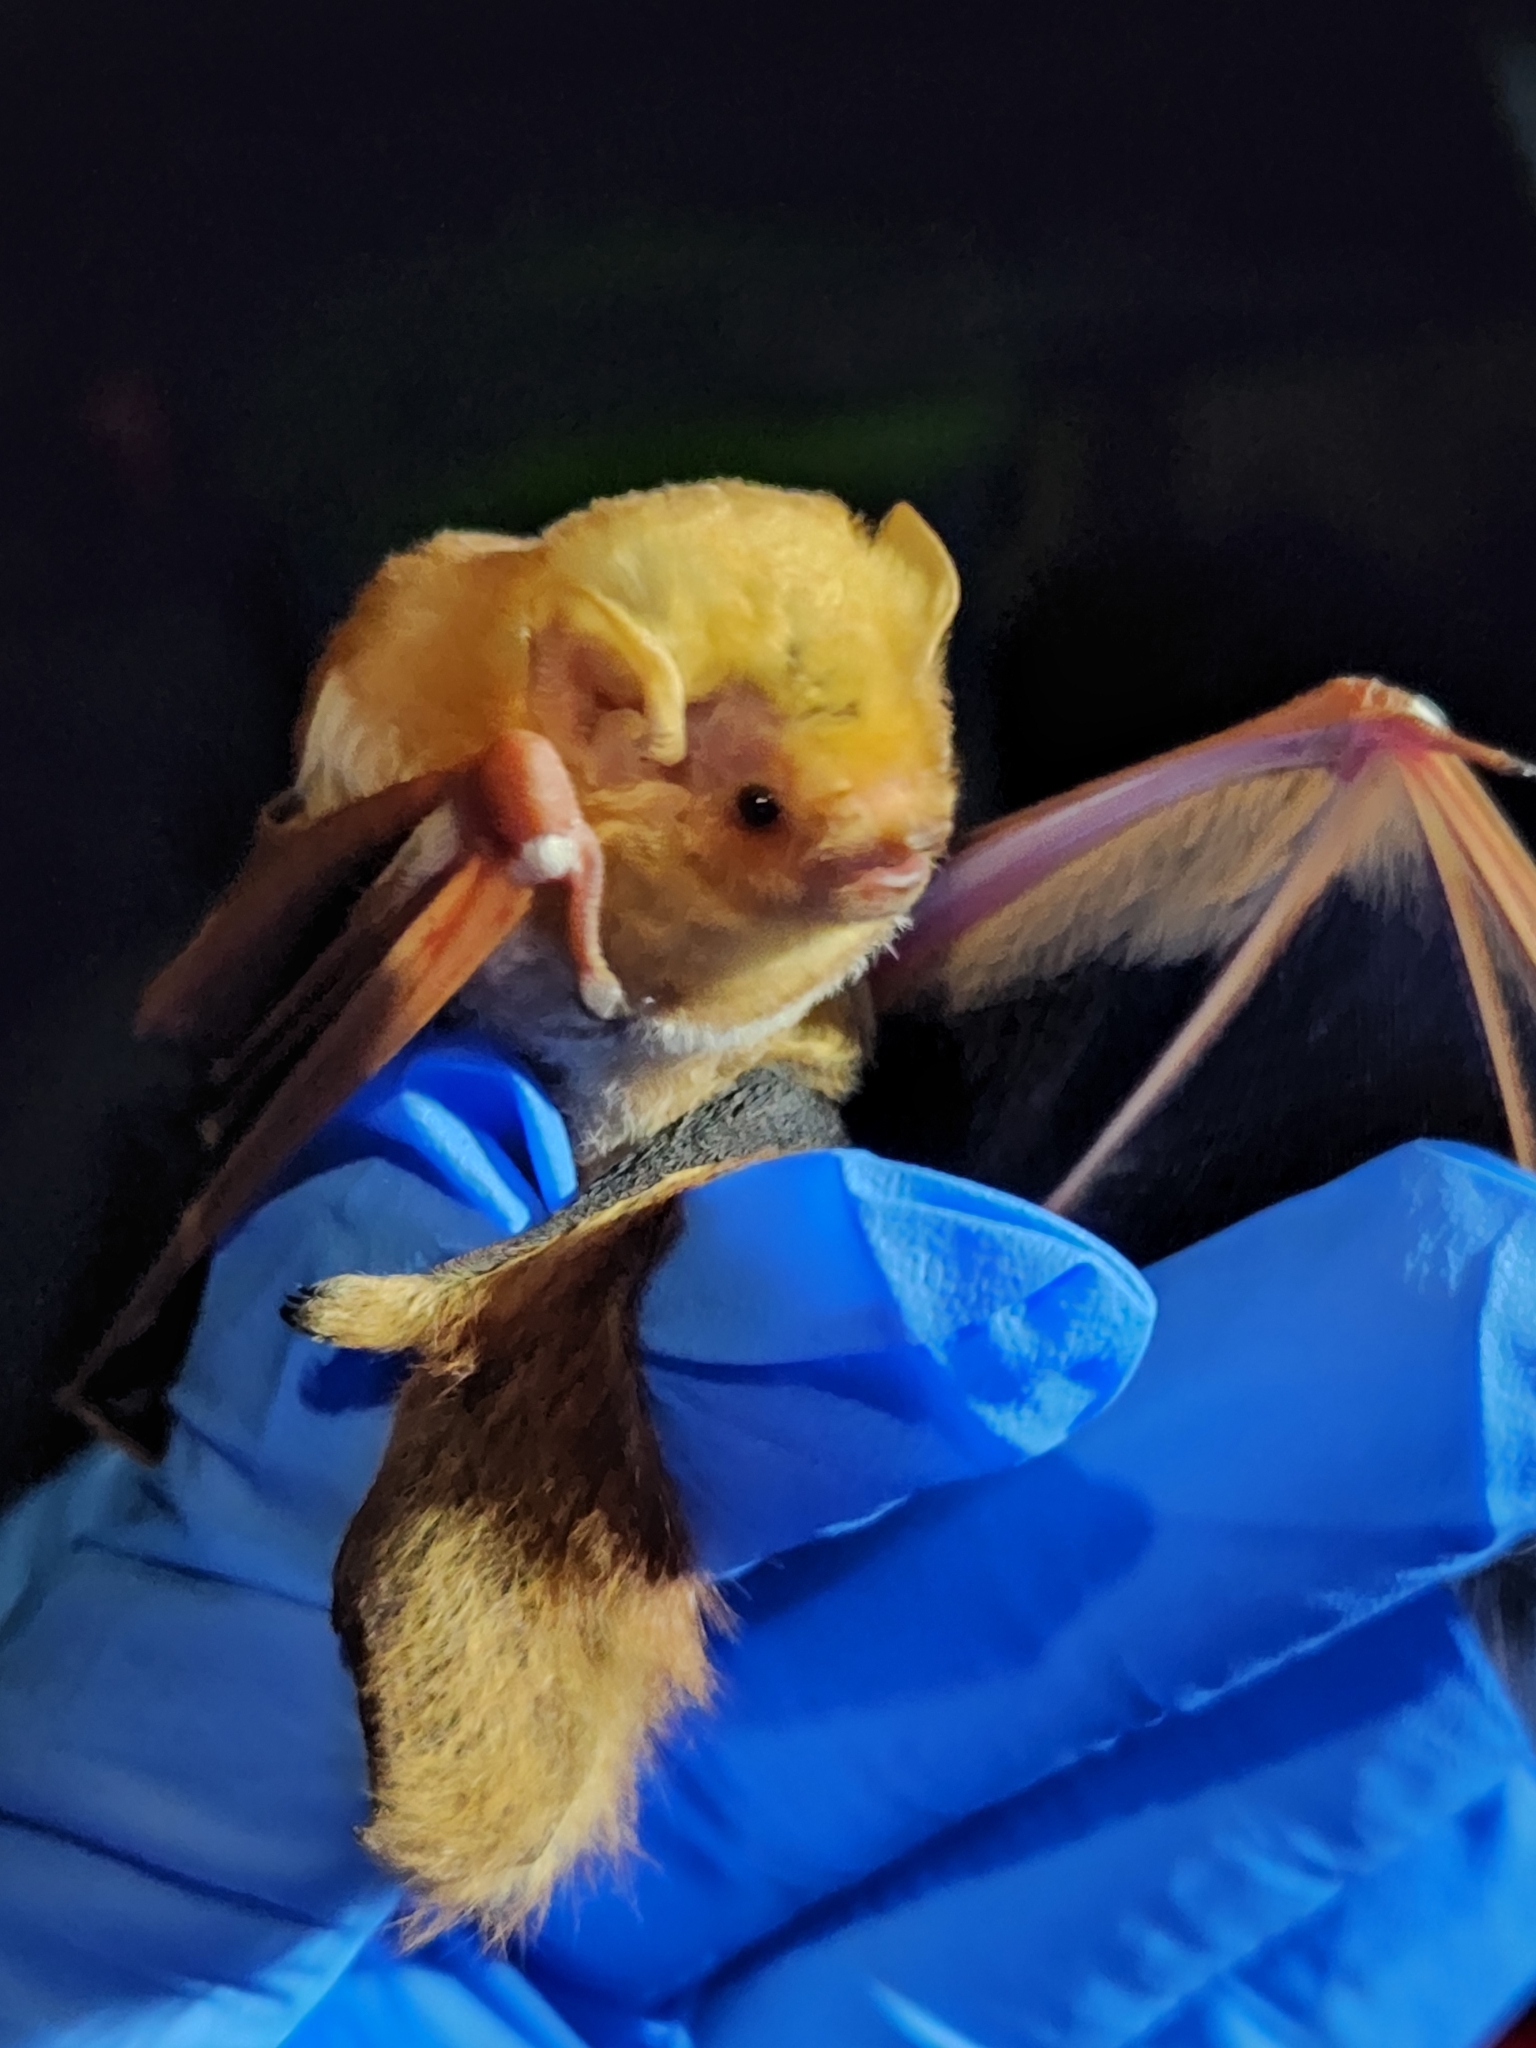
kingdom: Animalia
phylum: Chordata
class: Mammalia
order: Chiroptera
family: Vespertilionidae
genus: Lasiurus
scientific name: Lasiurus borealis
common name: Eastern red bat
